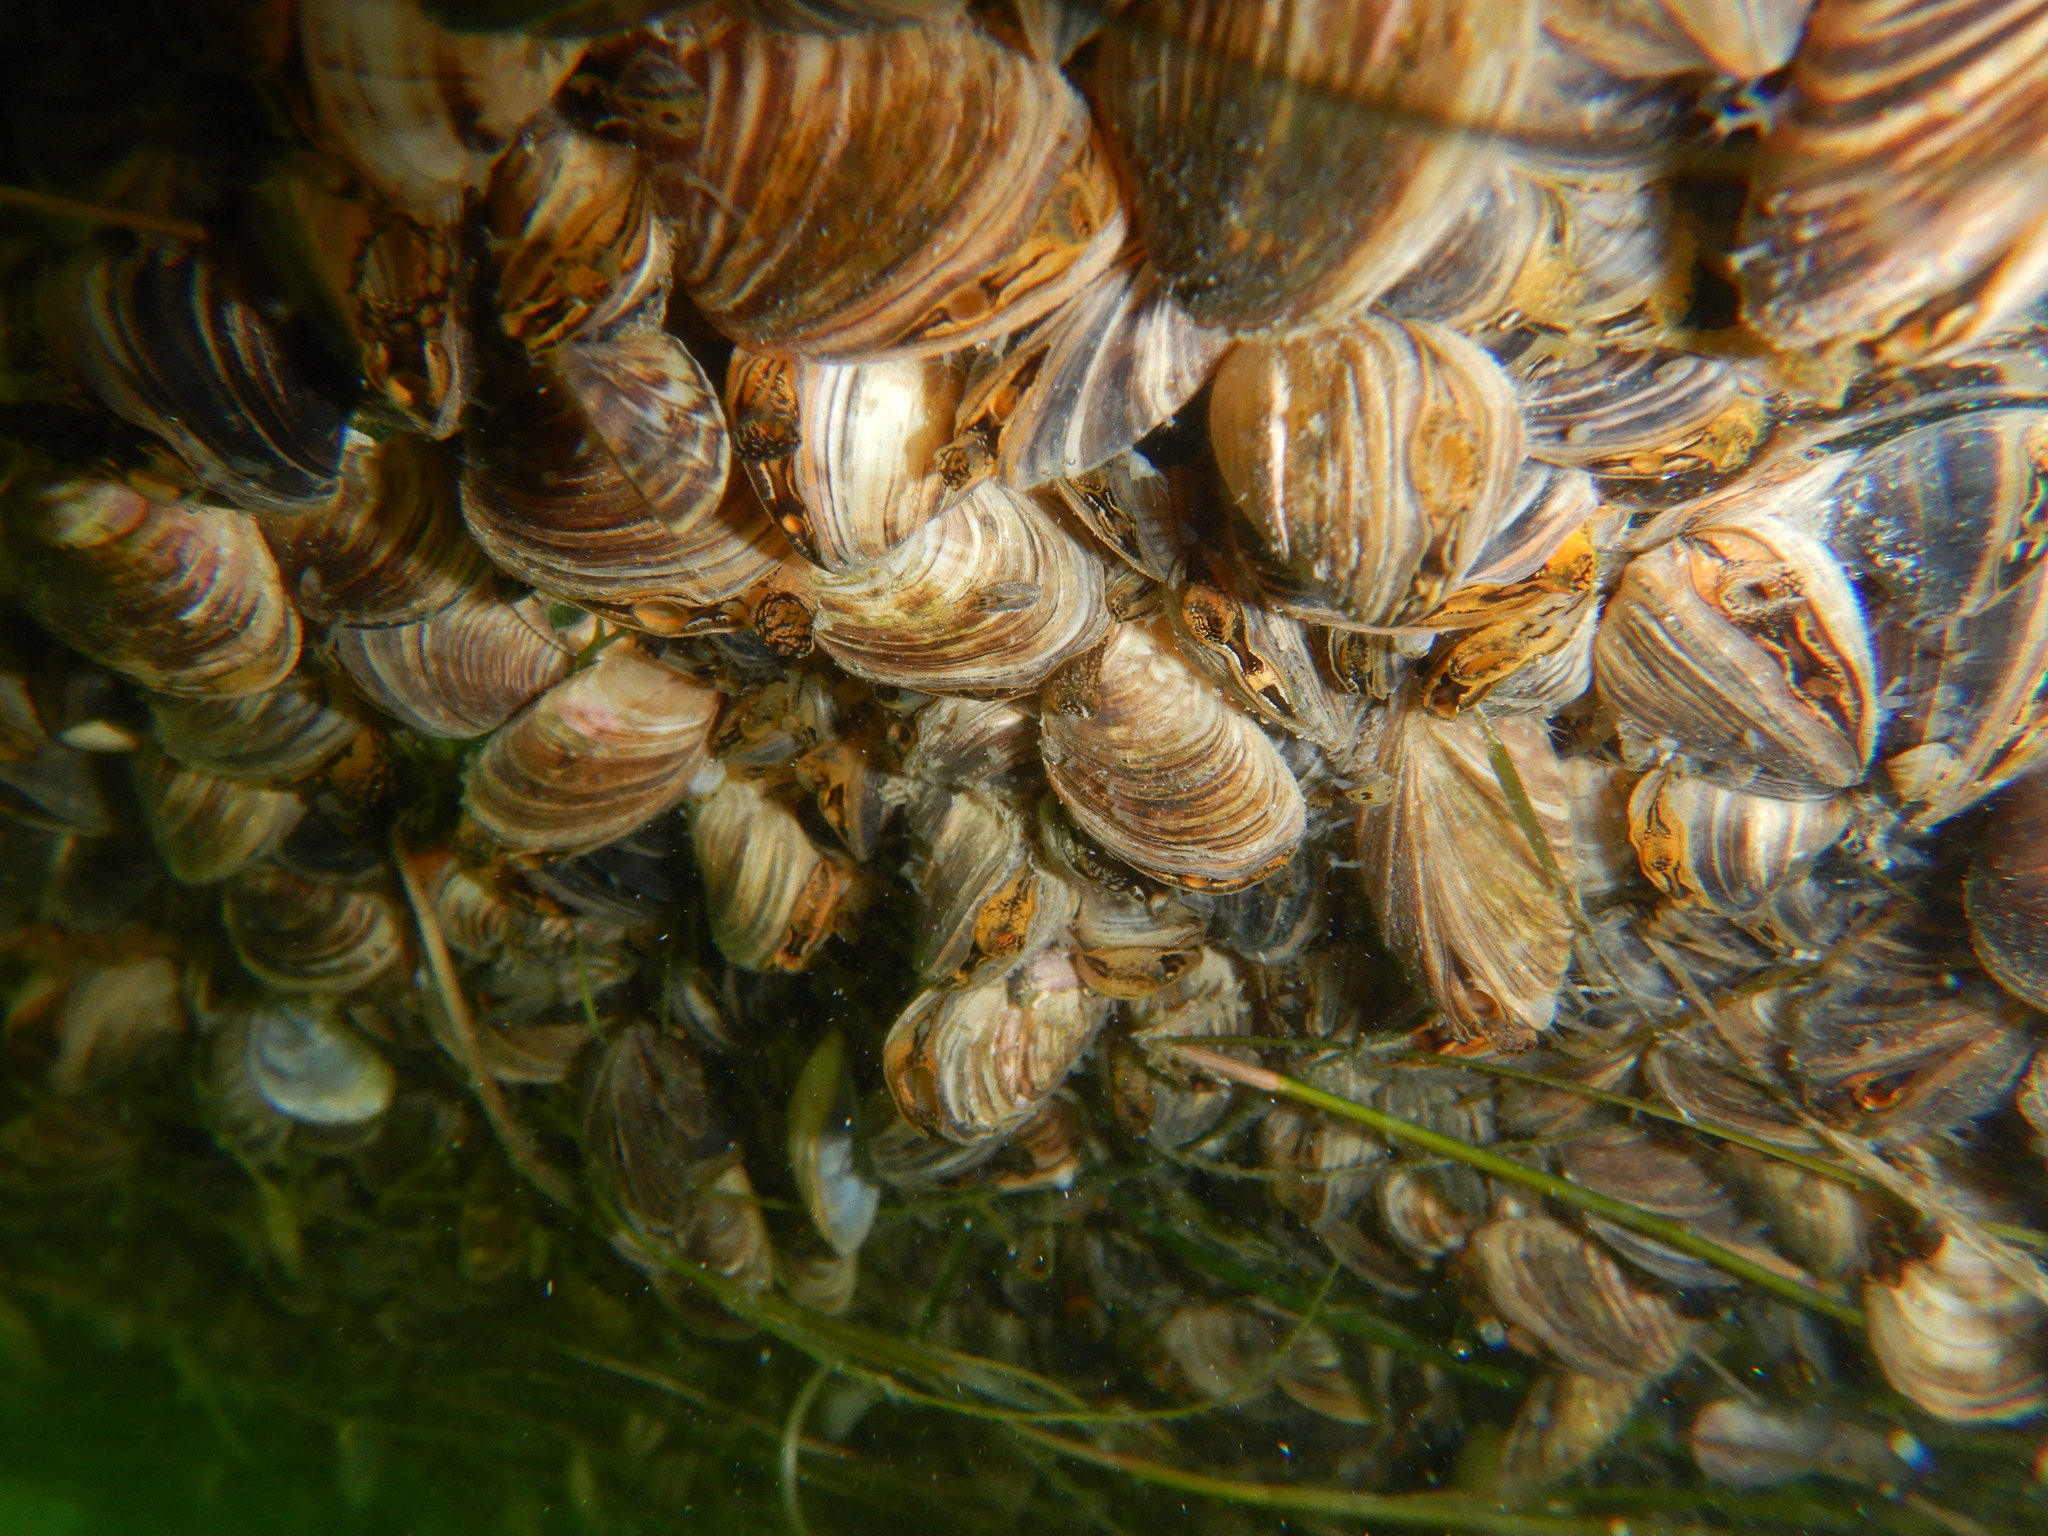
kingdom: Animalia
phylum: Mollusca
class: Bivalvia
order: Myida
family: Dreissenidae
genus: Dreissena
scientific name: Dreissena bugensis
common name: Quagga mussel
